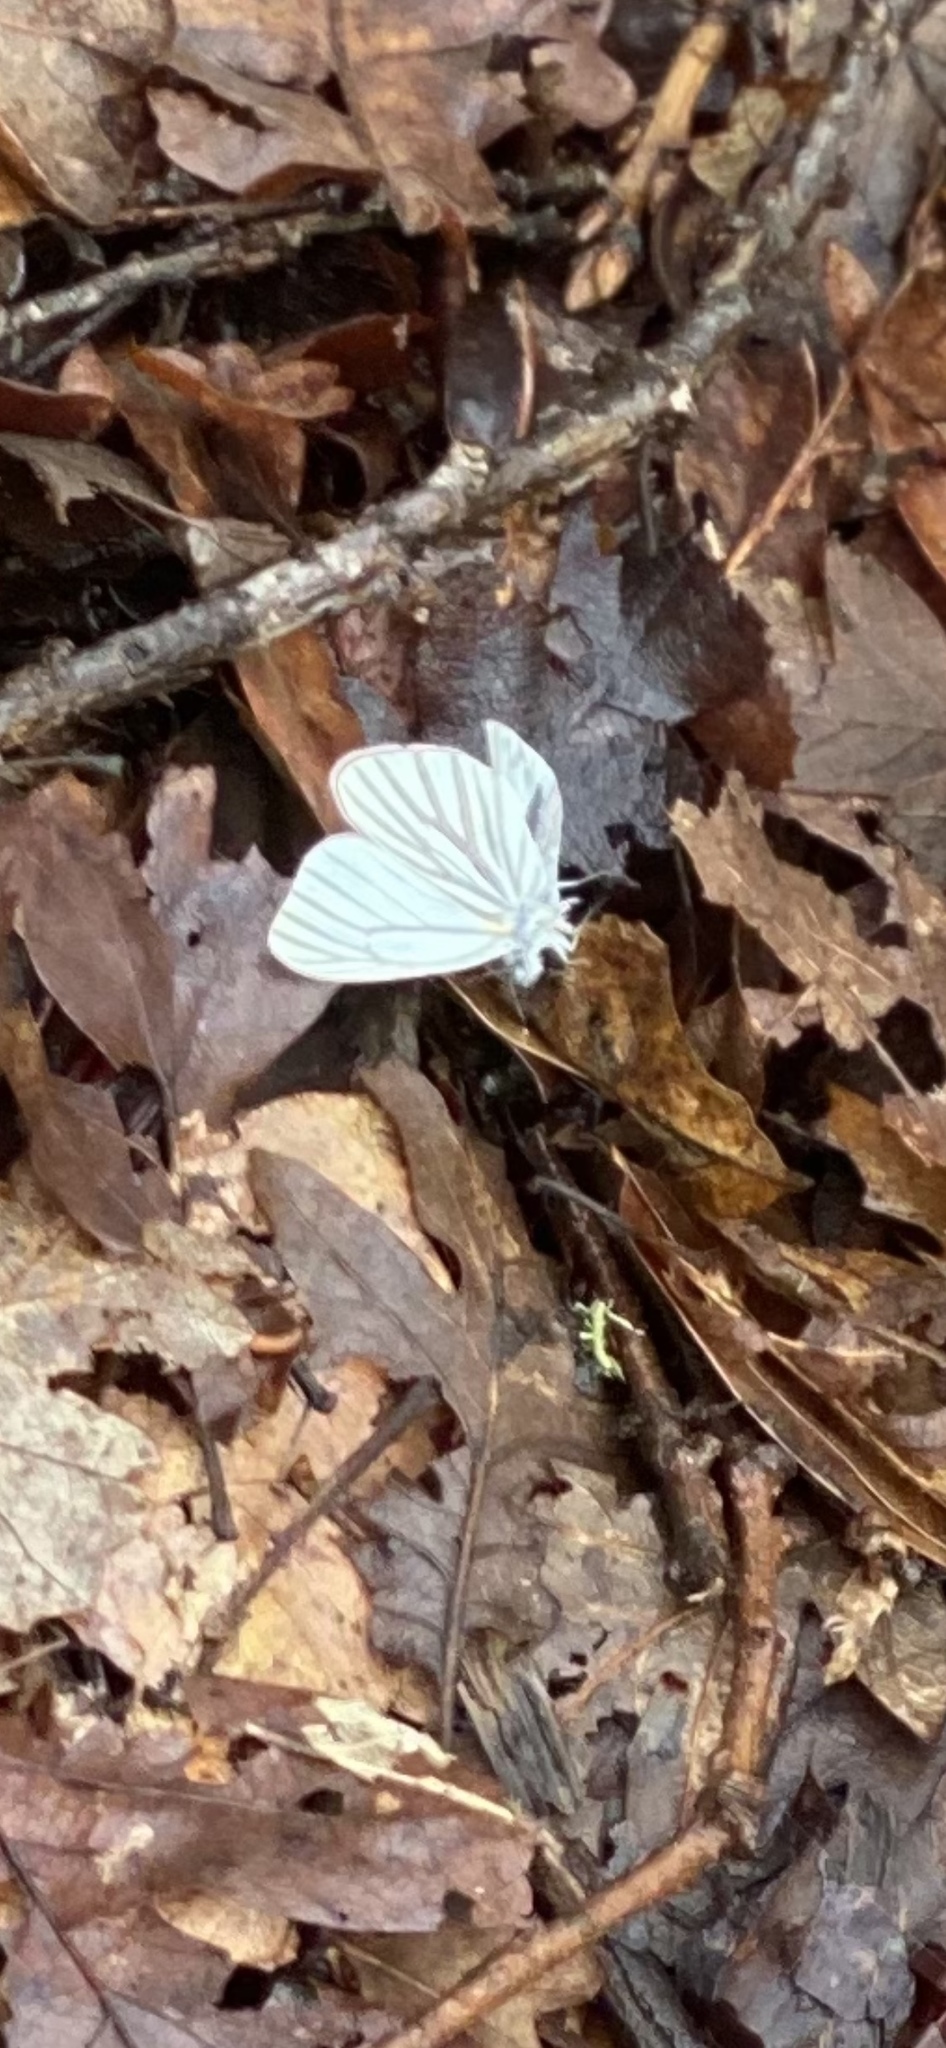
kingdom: Animalia
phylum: Arthropoda
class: Insecta
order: Lepidoptera
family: Pieridae
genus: Pieris
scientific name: Pieris marginalis
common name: Margined white
